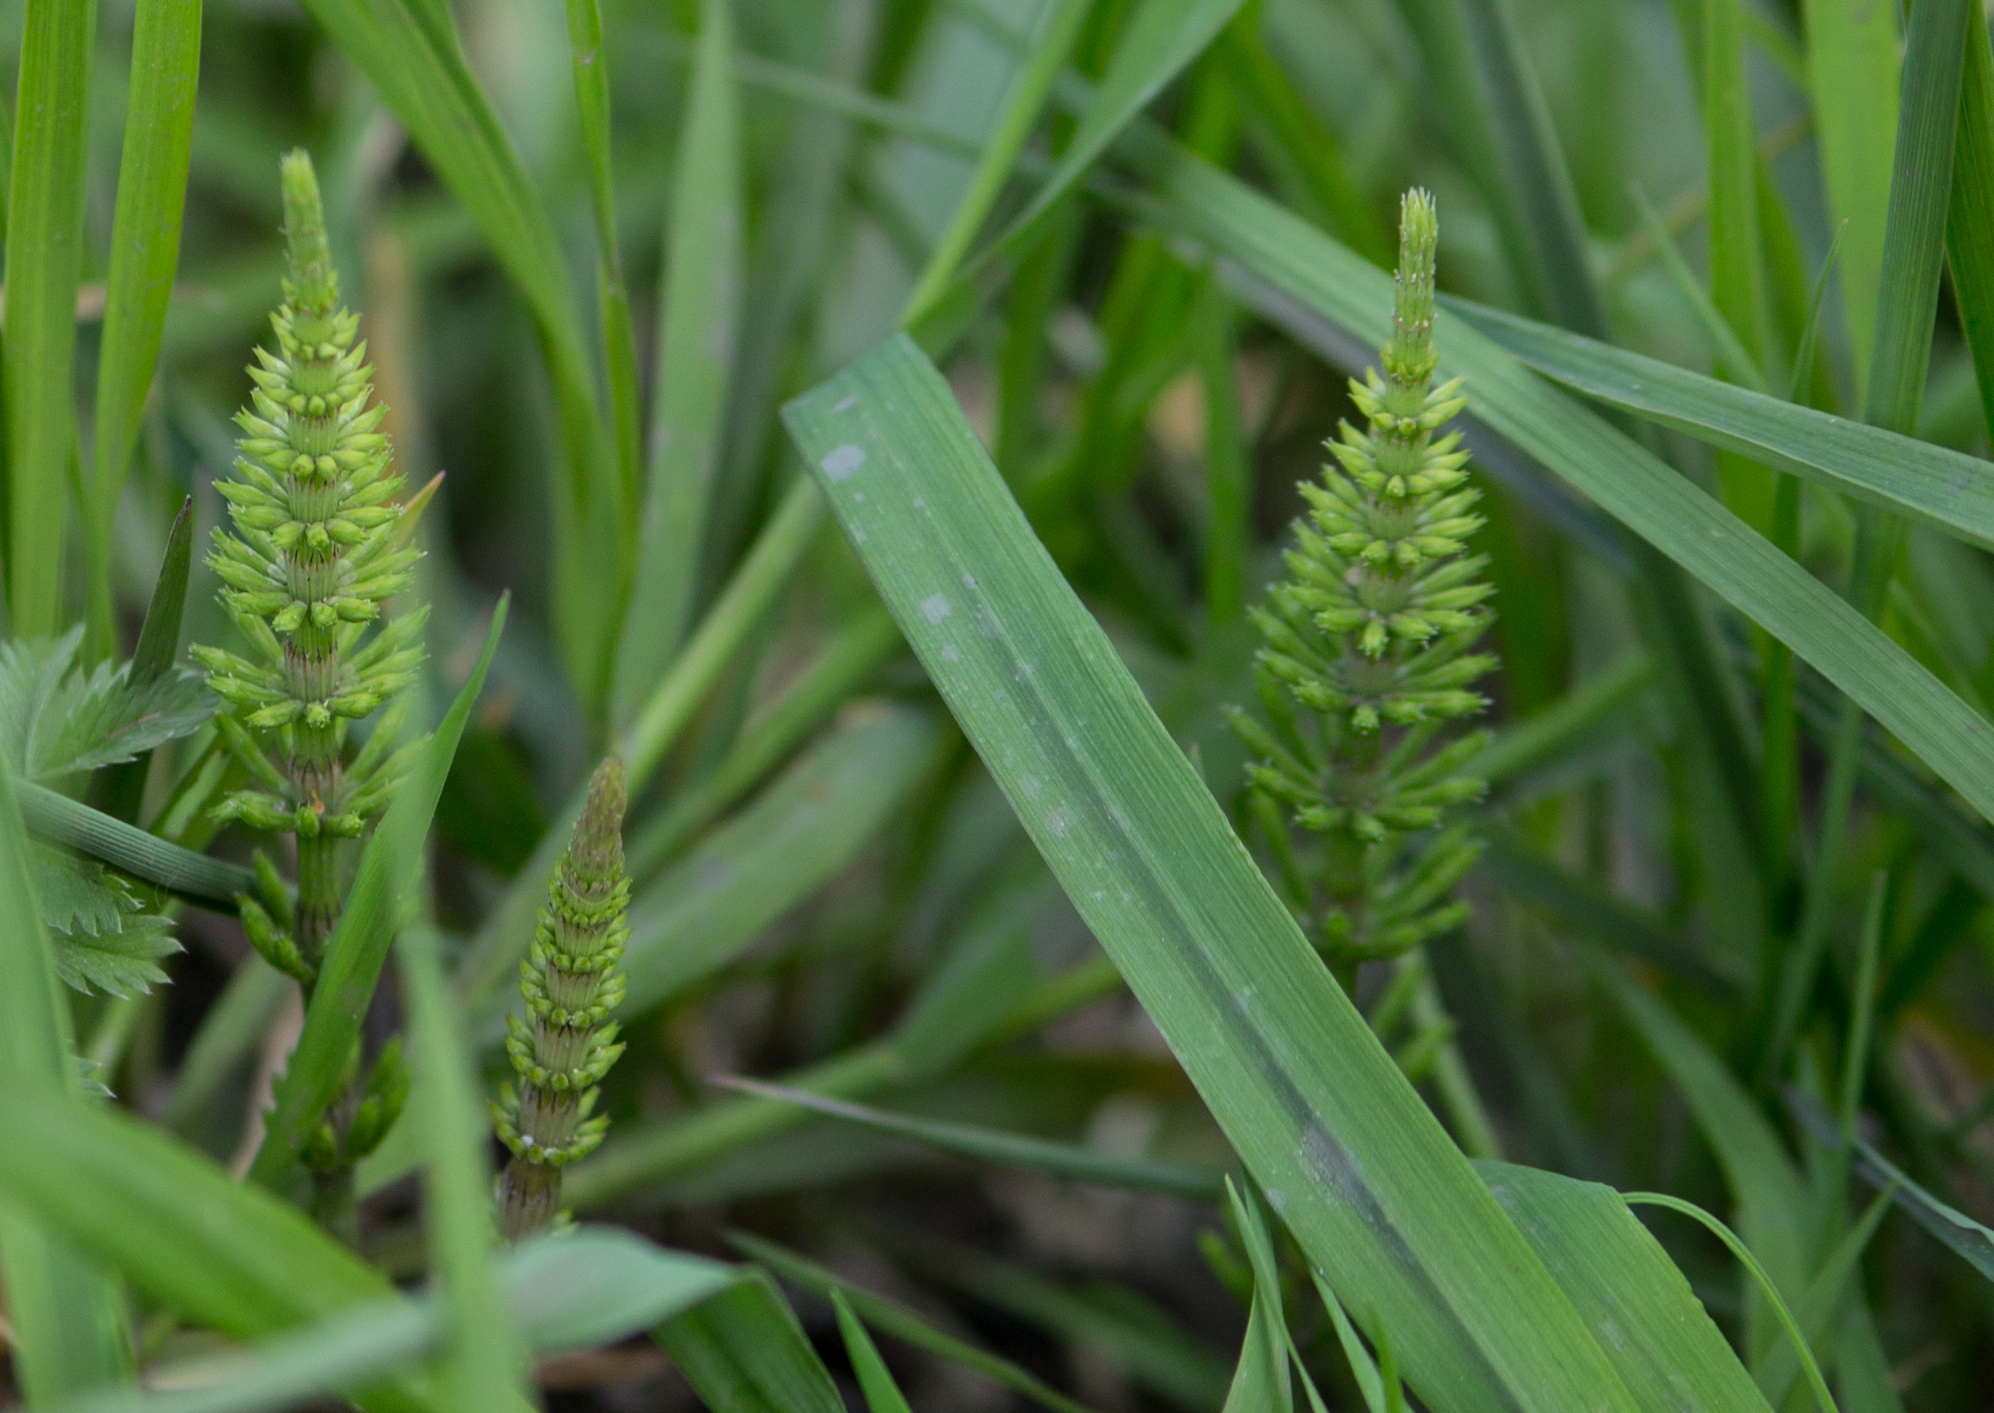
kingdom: Plantae
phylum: Tracheophyta
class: Polypodiopsida
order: Equisetales
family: Equisetaceae
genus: Equisetum
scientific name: Equisetum arvense
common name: Field horsetail
